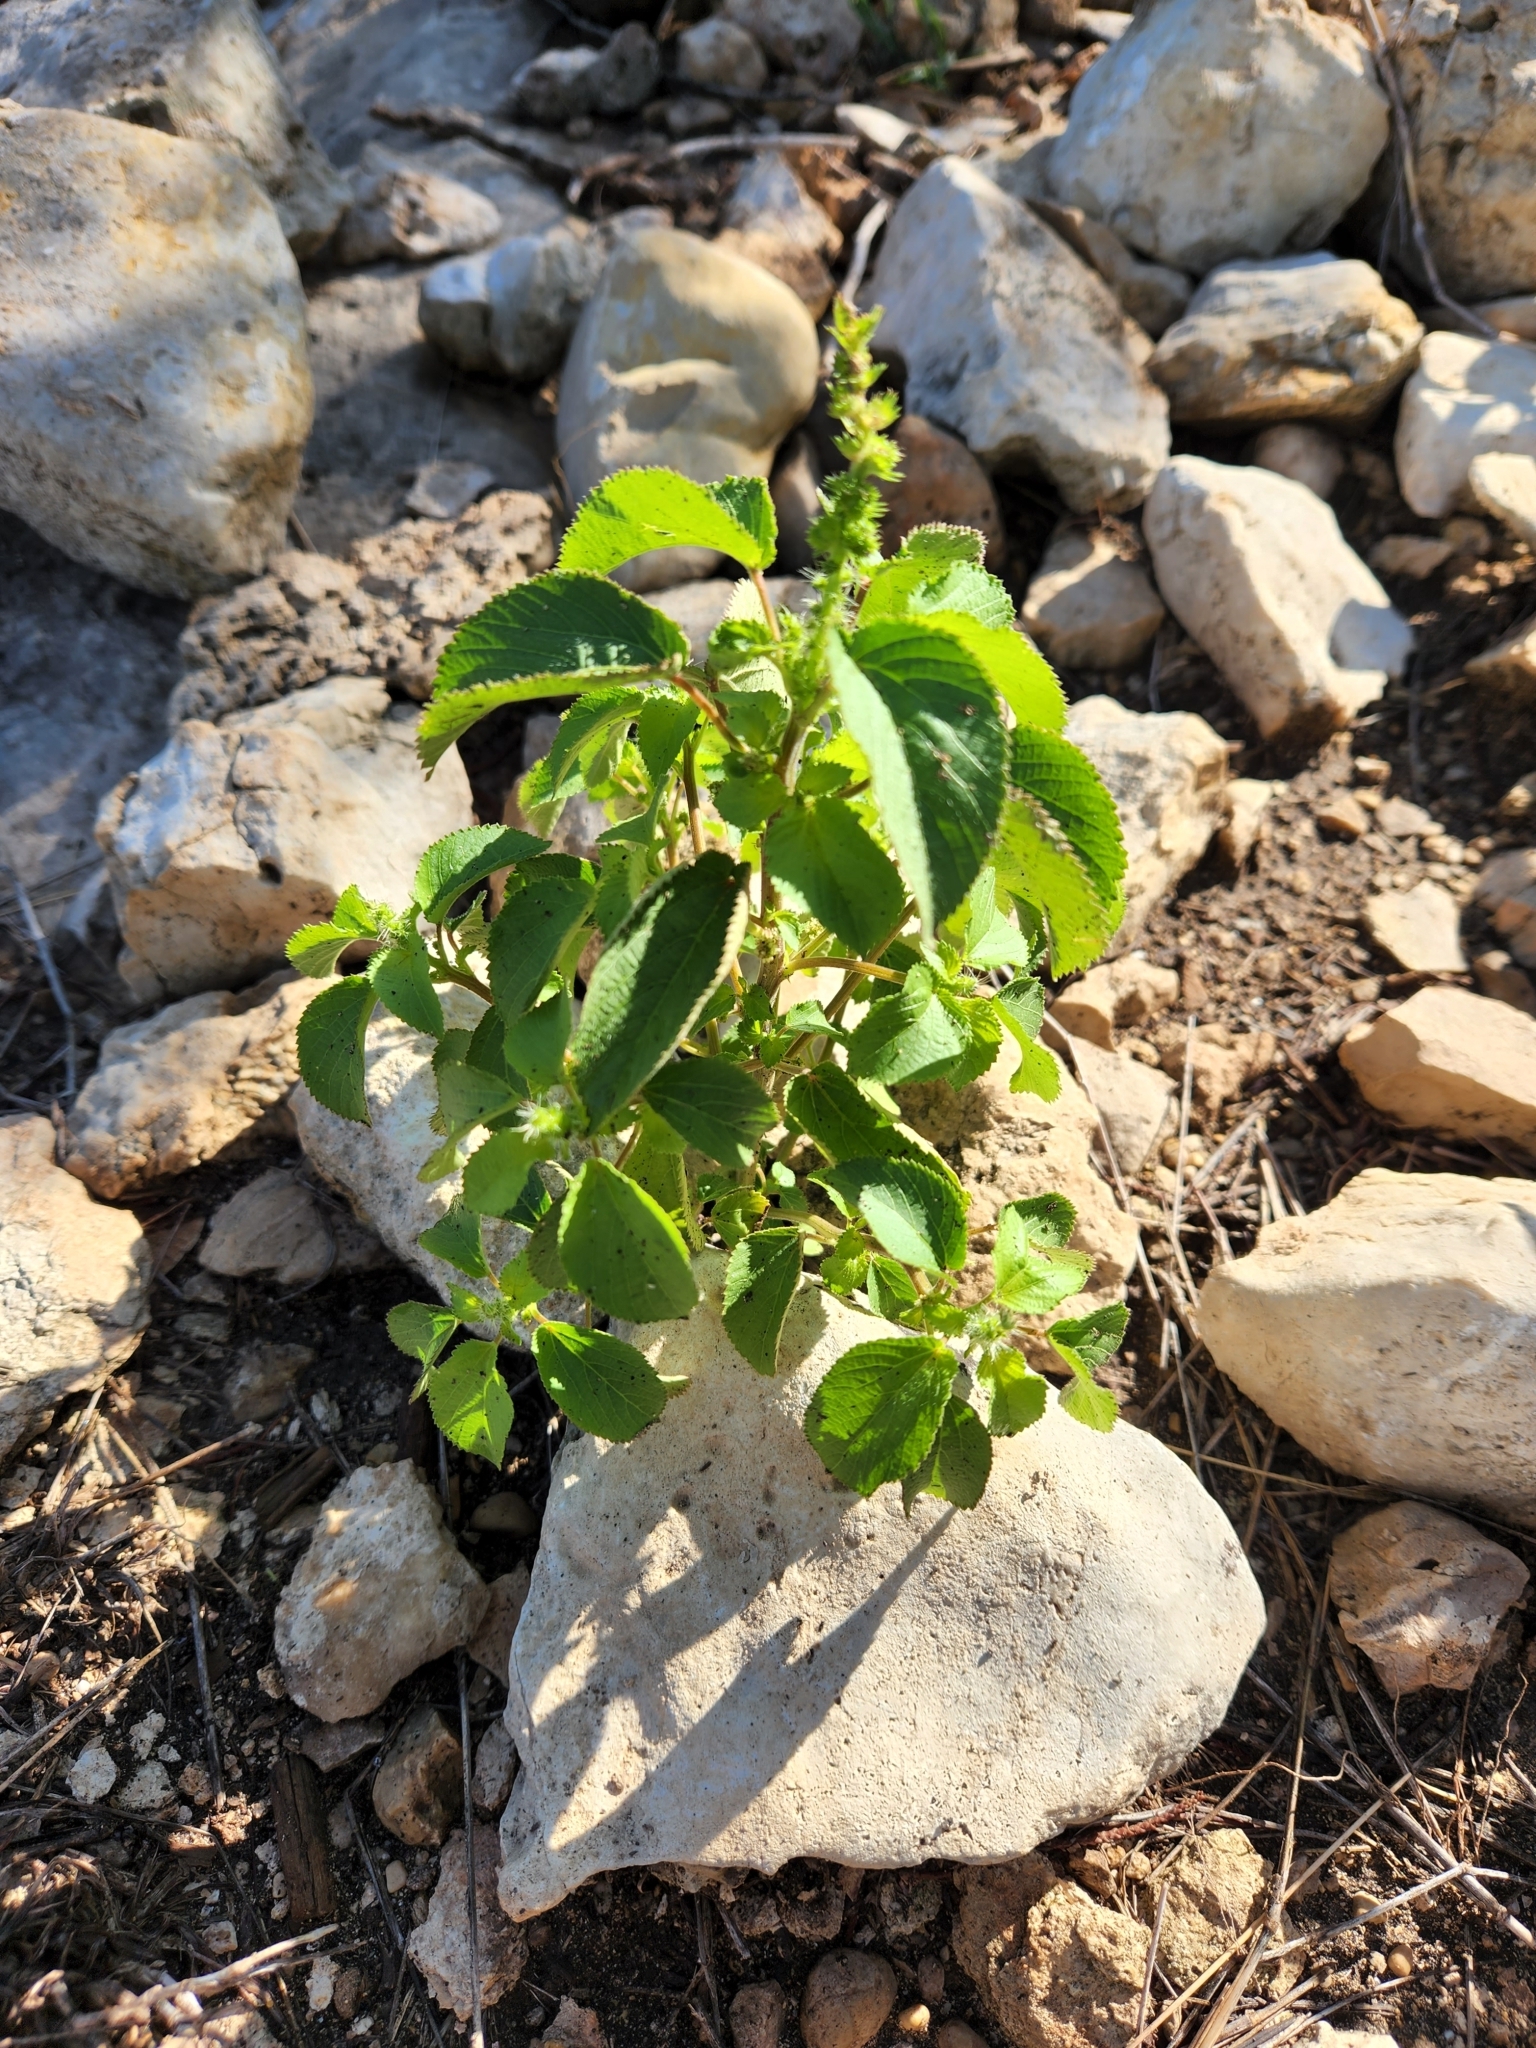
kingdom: Plantae
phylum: Tracheophyta
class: Magnoliopsida
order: Malpighiales
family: Euphorbiaceae
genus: Acalypha
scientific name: Acalypha ostryifolia
